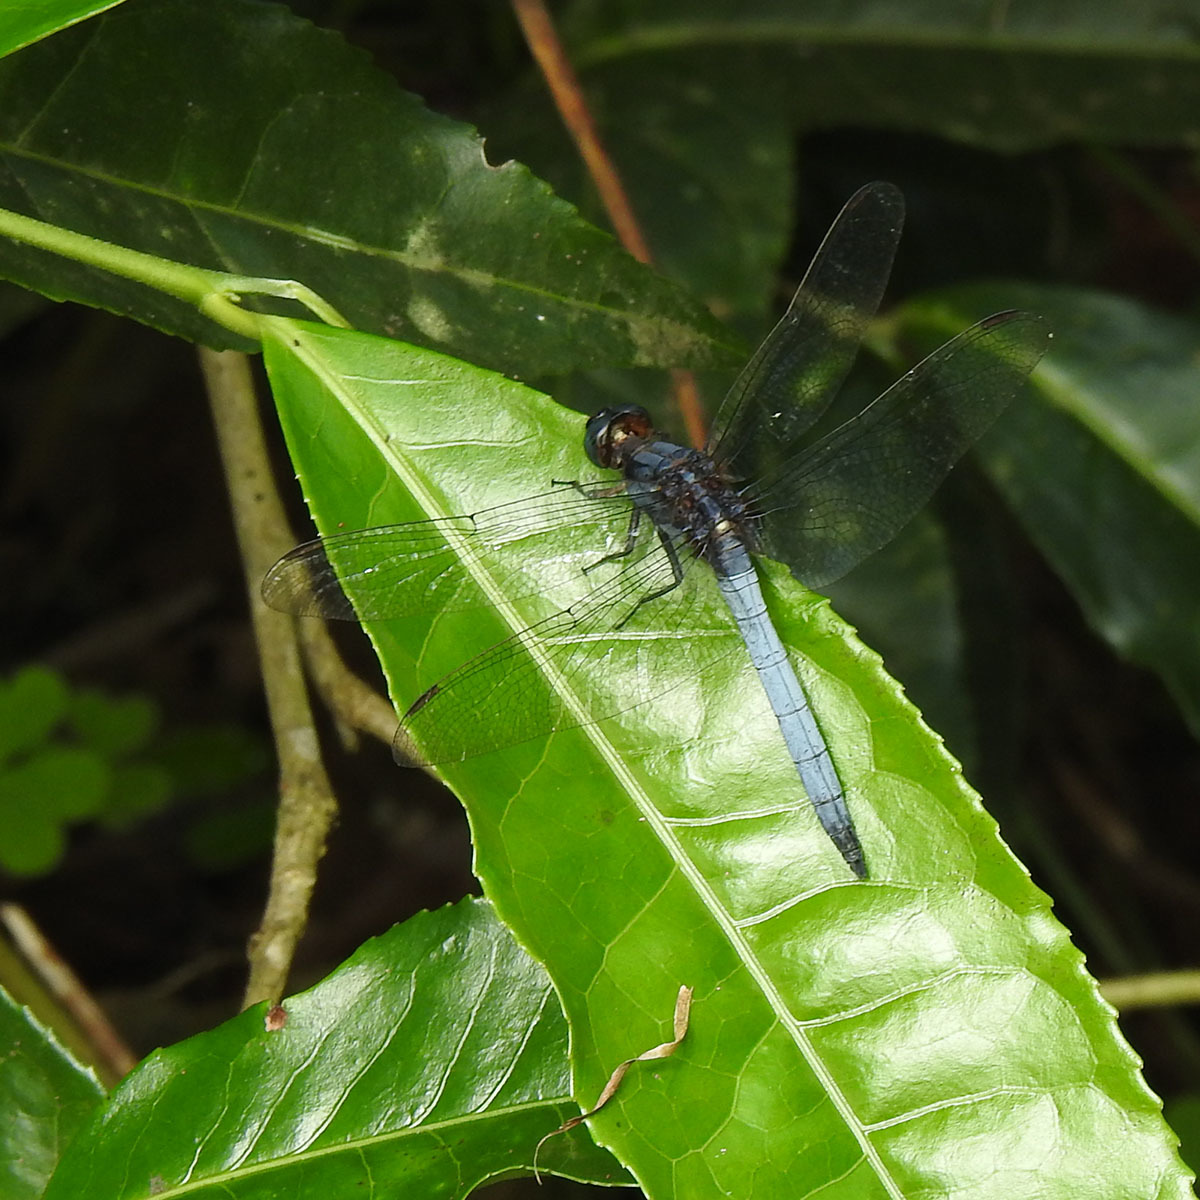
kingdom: Animalia
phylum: Arthropoda
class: Insecta
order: Odonata
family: Libellulidae
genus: Orthetrum
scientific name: Orthetrum glaucum
